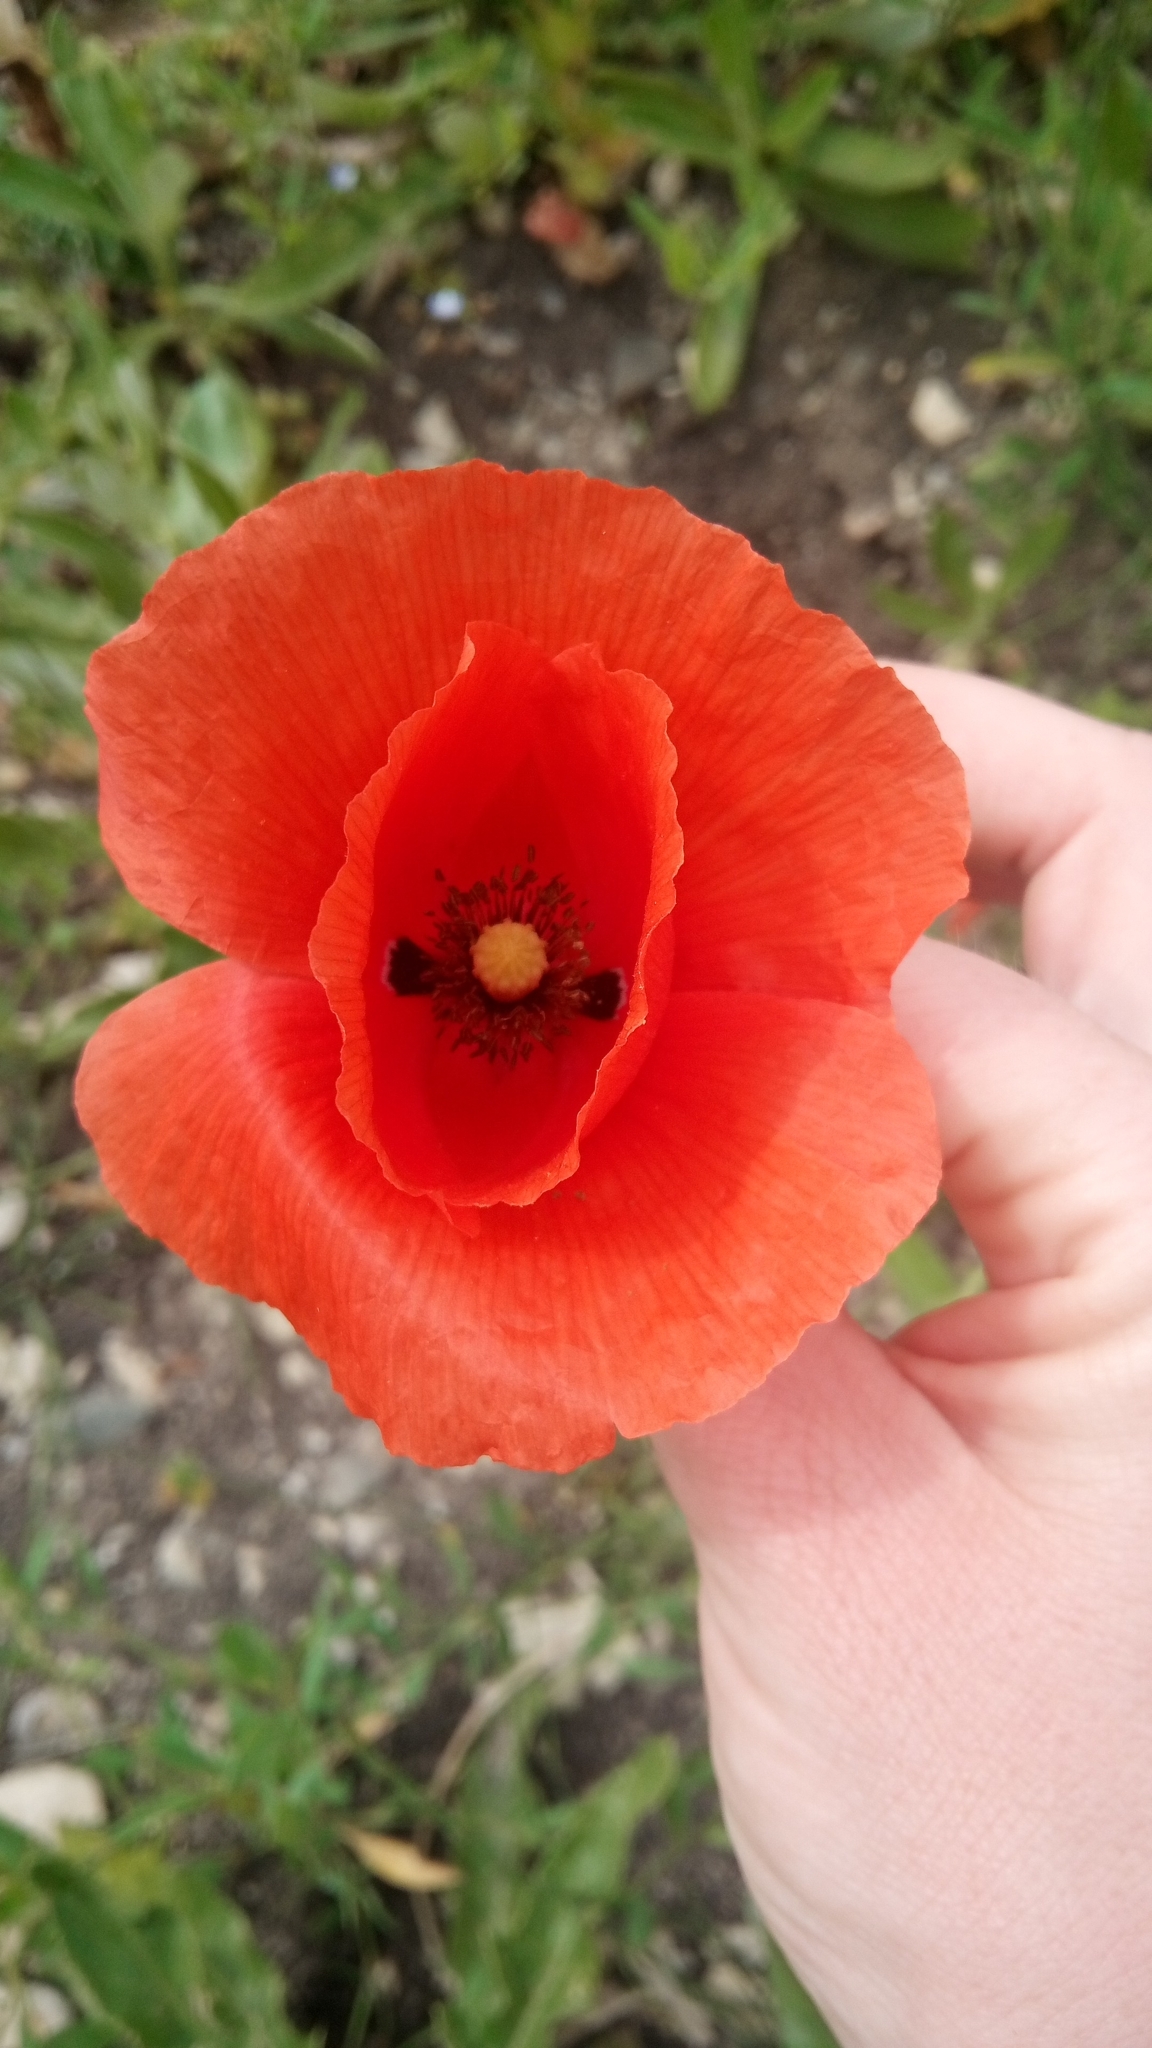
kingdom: Plantae
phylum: Tracheophyta
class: Magnoliopsida
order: Ranunculales
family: Papaveraceae
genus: Papaver
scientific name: Papaver rhoeas
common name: Corn poppy
